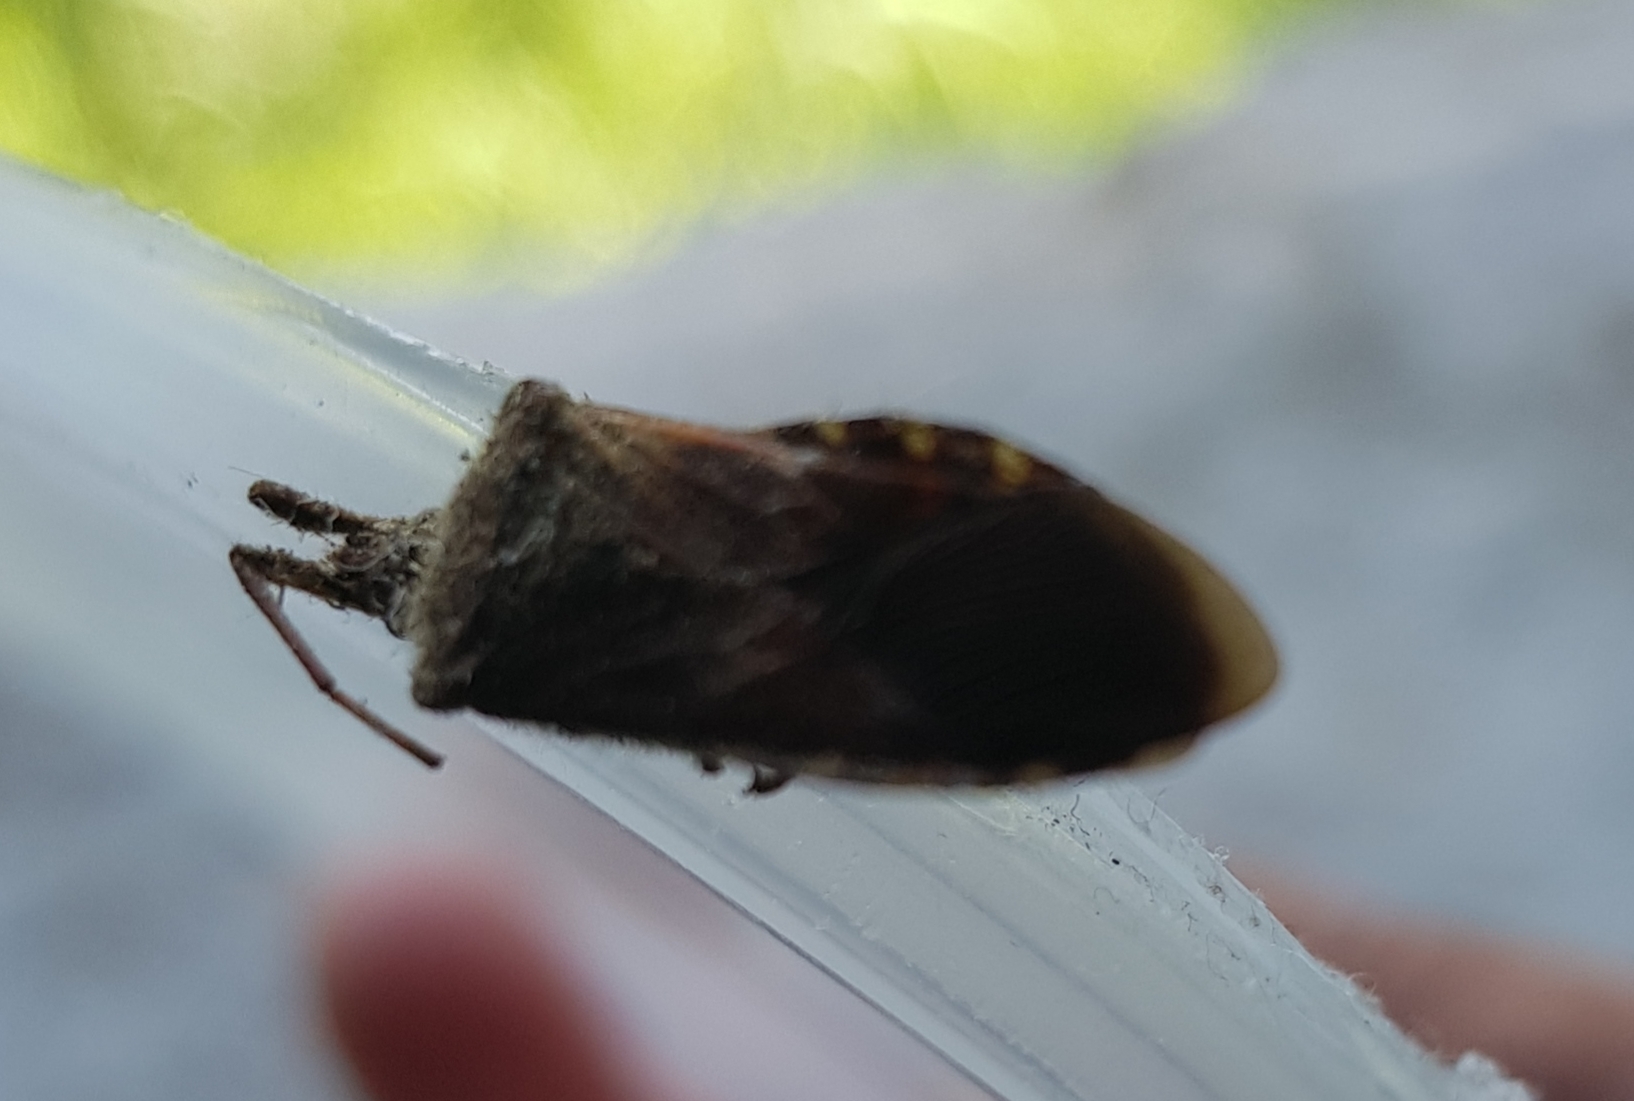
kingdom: Animalia
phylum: Arthropoda
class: Insecta
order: Hemiptera
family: Coreidae
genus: Leptoglossus
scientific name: Leptoglossus occidentalis
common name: Western conifer-seed bug
